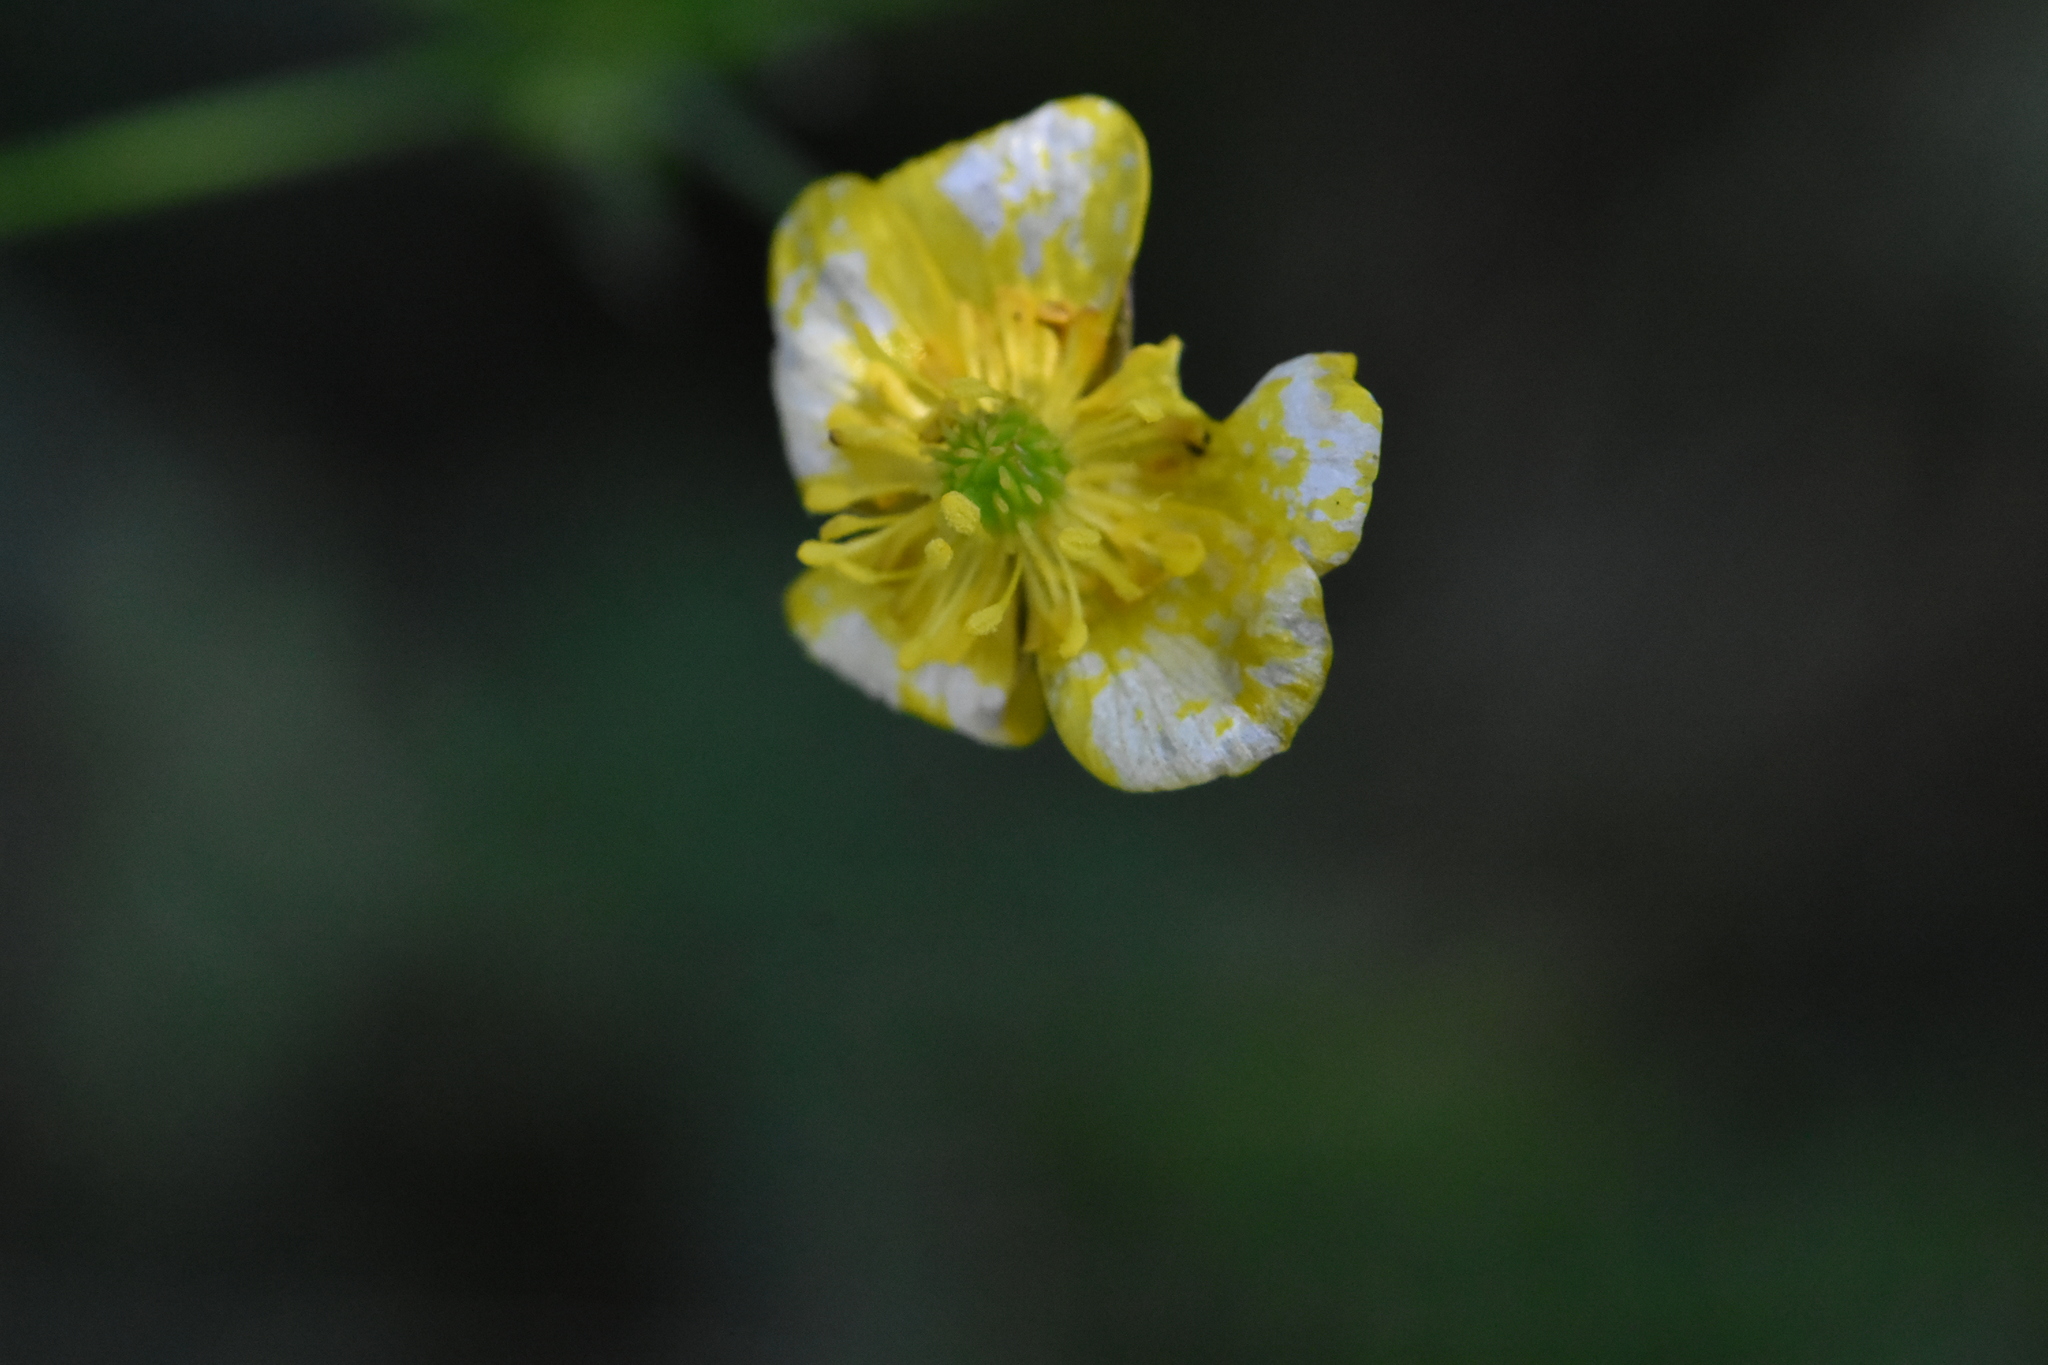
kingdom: Plantae
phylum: Tracheophyta
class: Magnoliopsida
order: Ranunculales
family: Ranunculaceae
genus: Ranunculus
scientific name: Ranunculus acris
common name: Meadow buttercup
